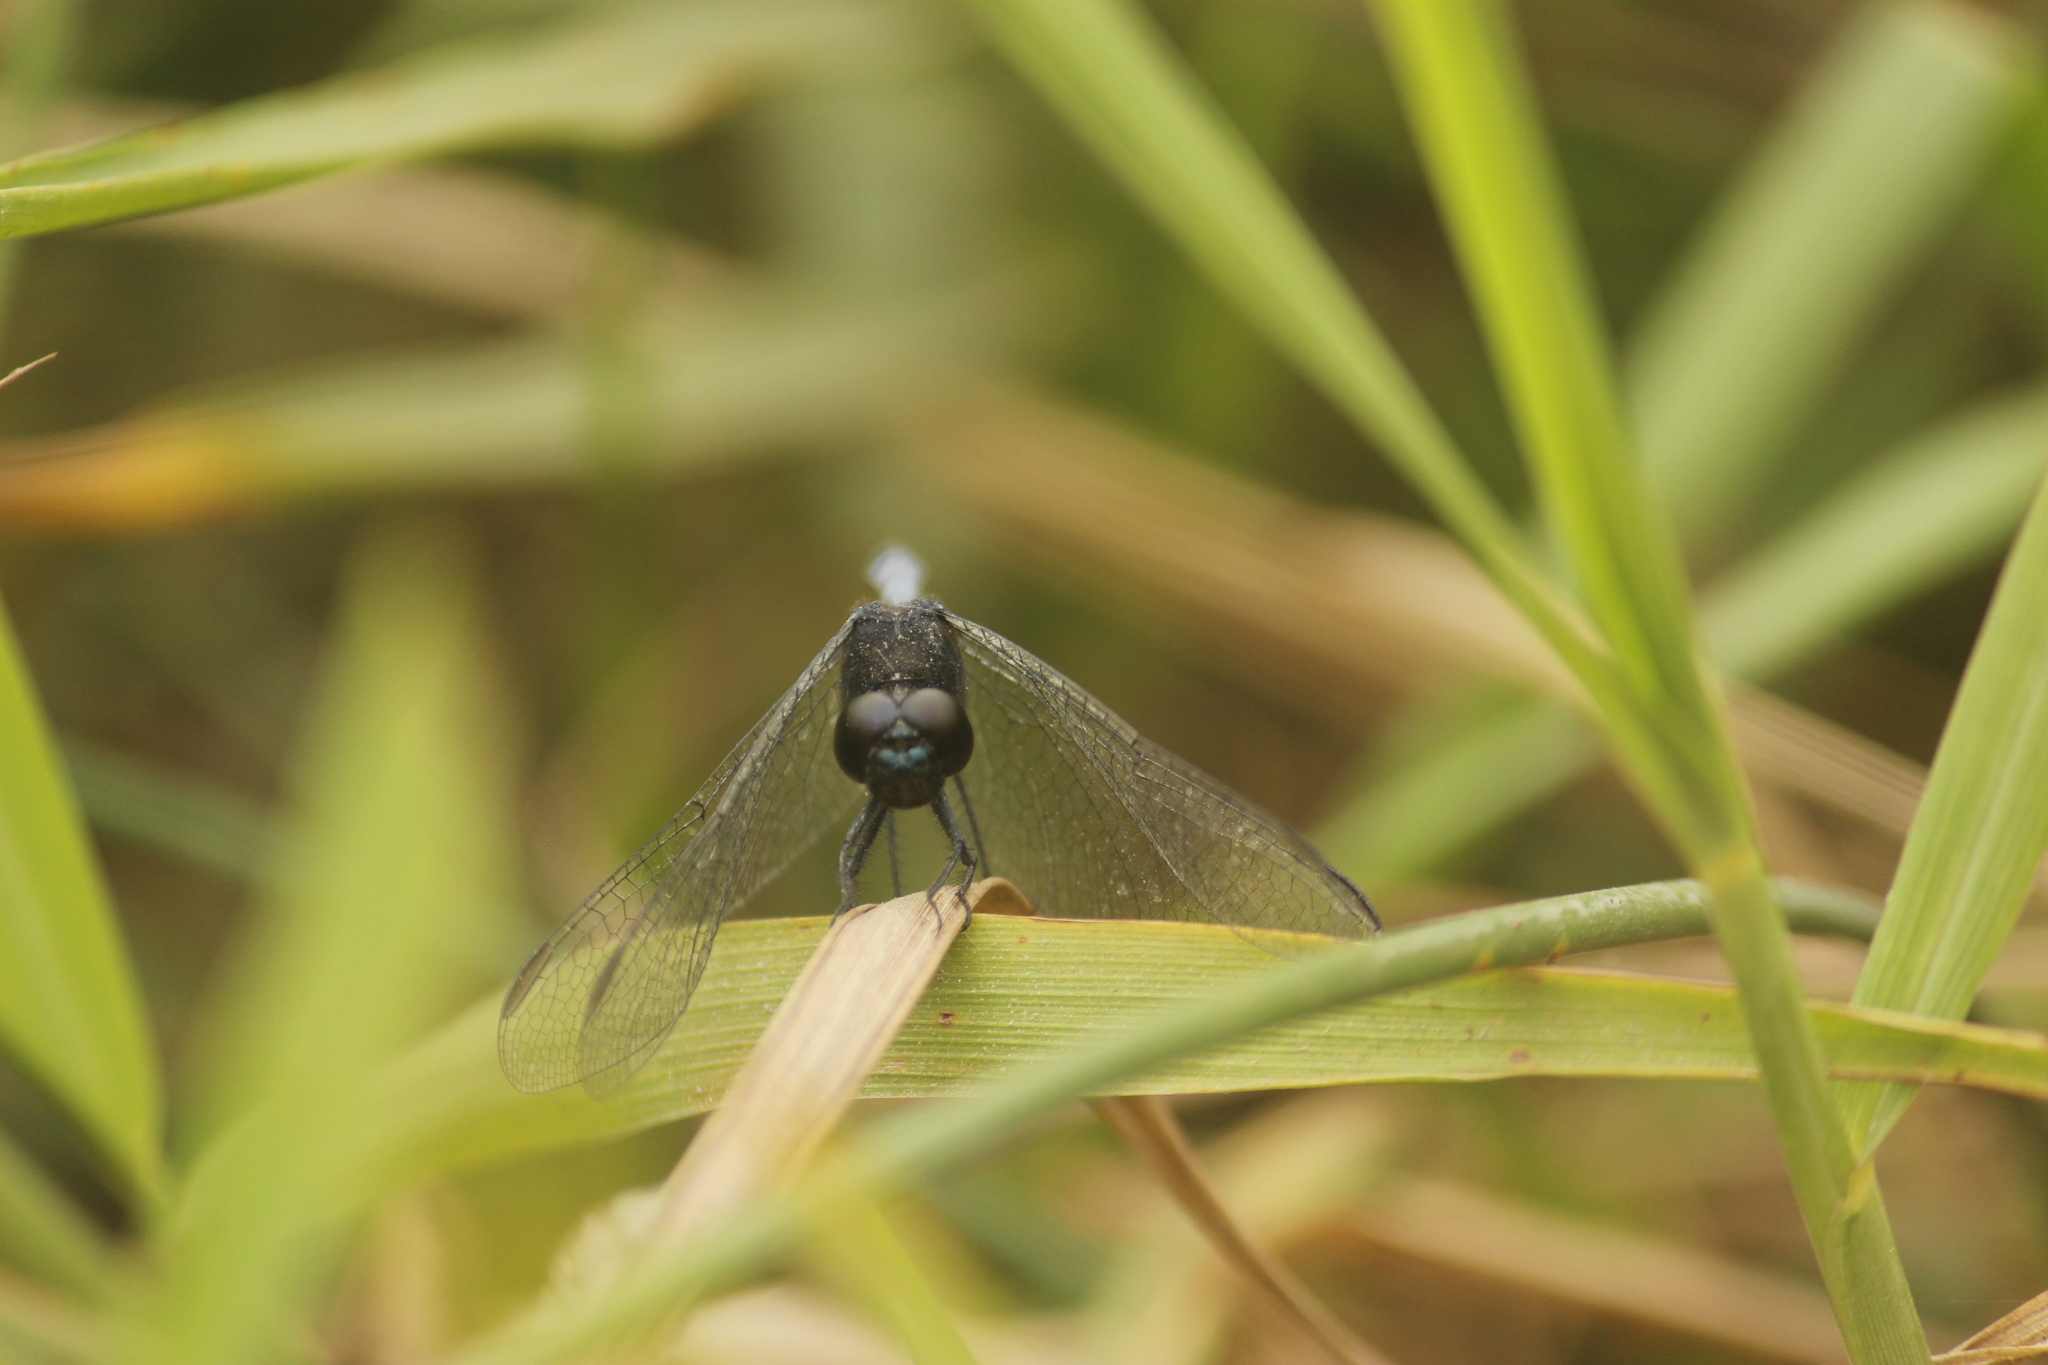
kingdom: Animalia
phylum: Arthropoda
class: Insecta
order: Odonata
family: Libellulidae
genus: Erythrodiplax
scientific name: Erythrodiplax cleopatra
